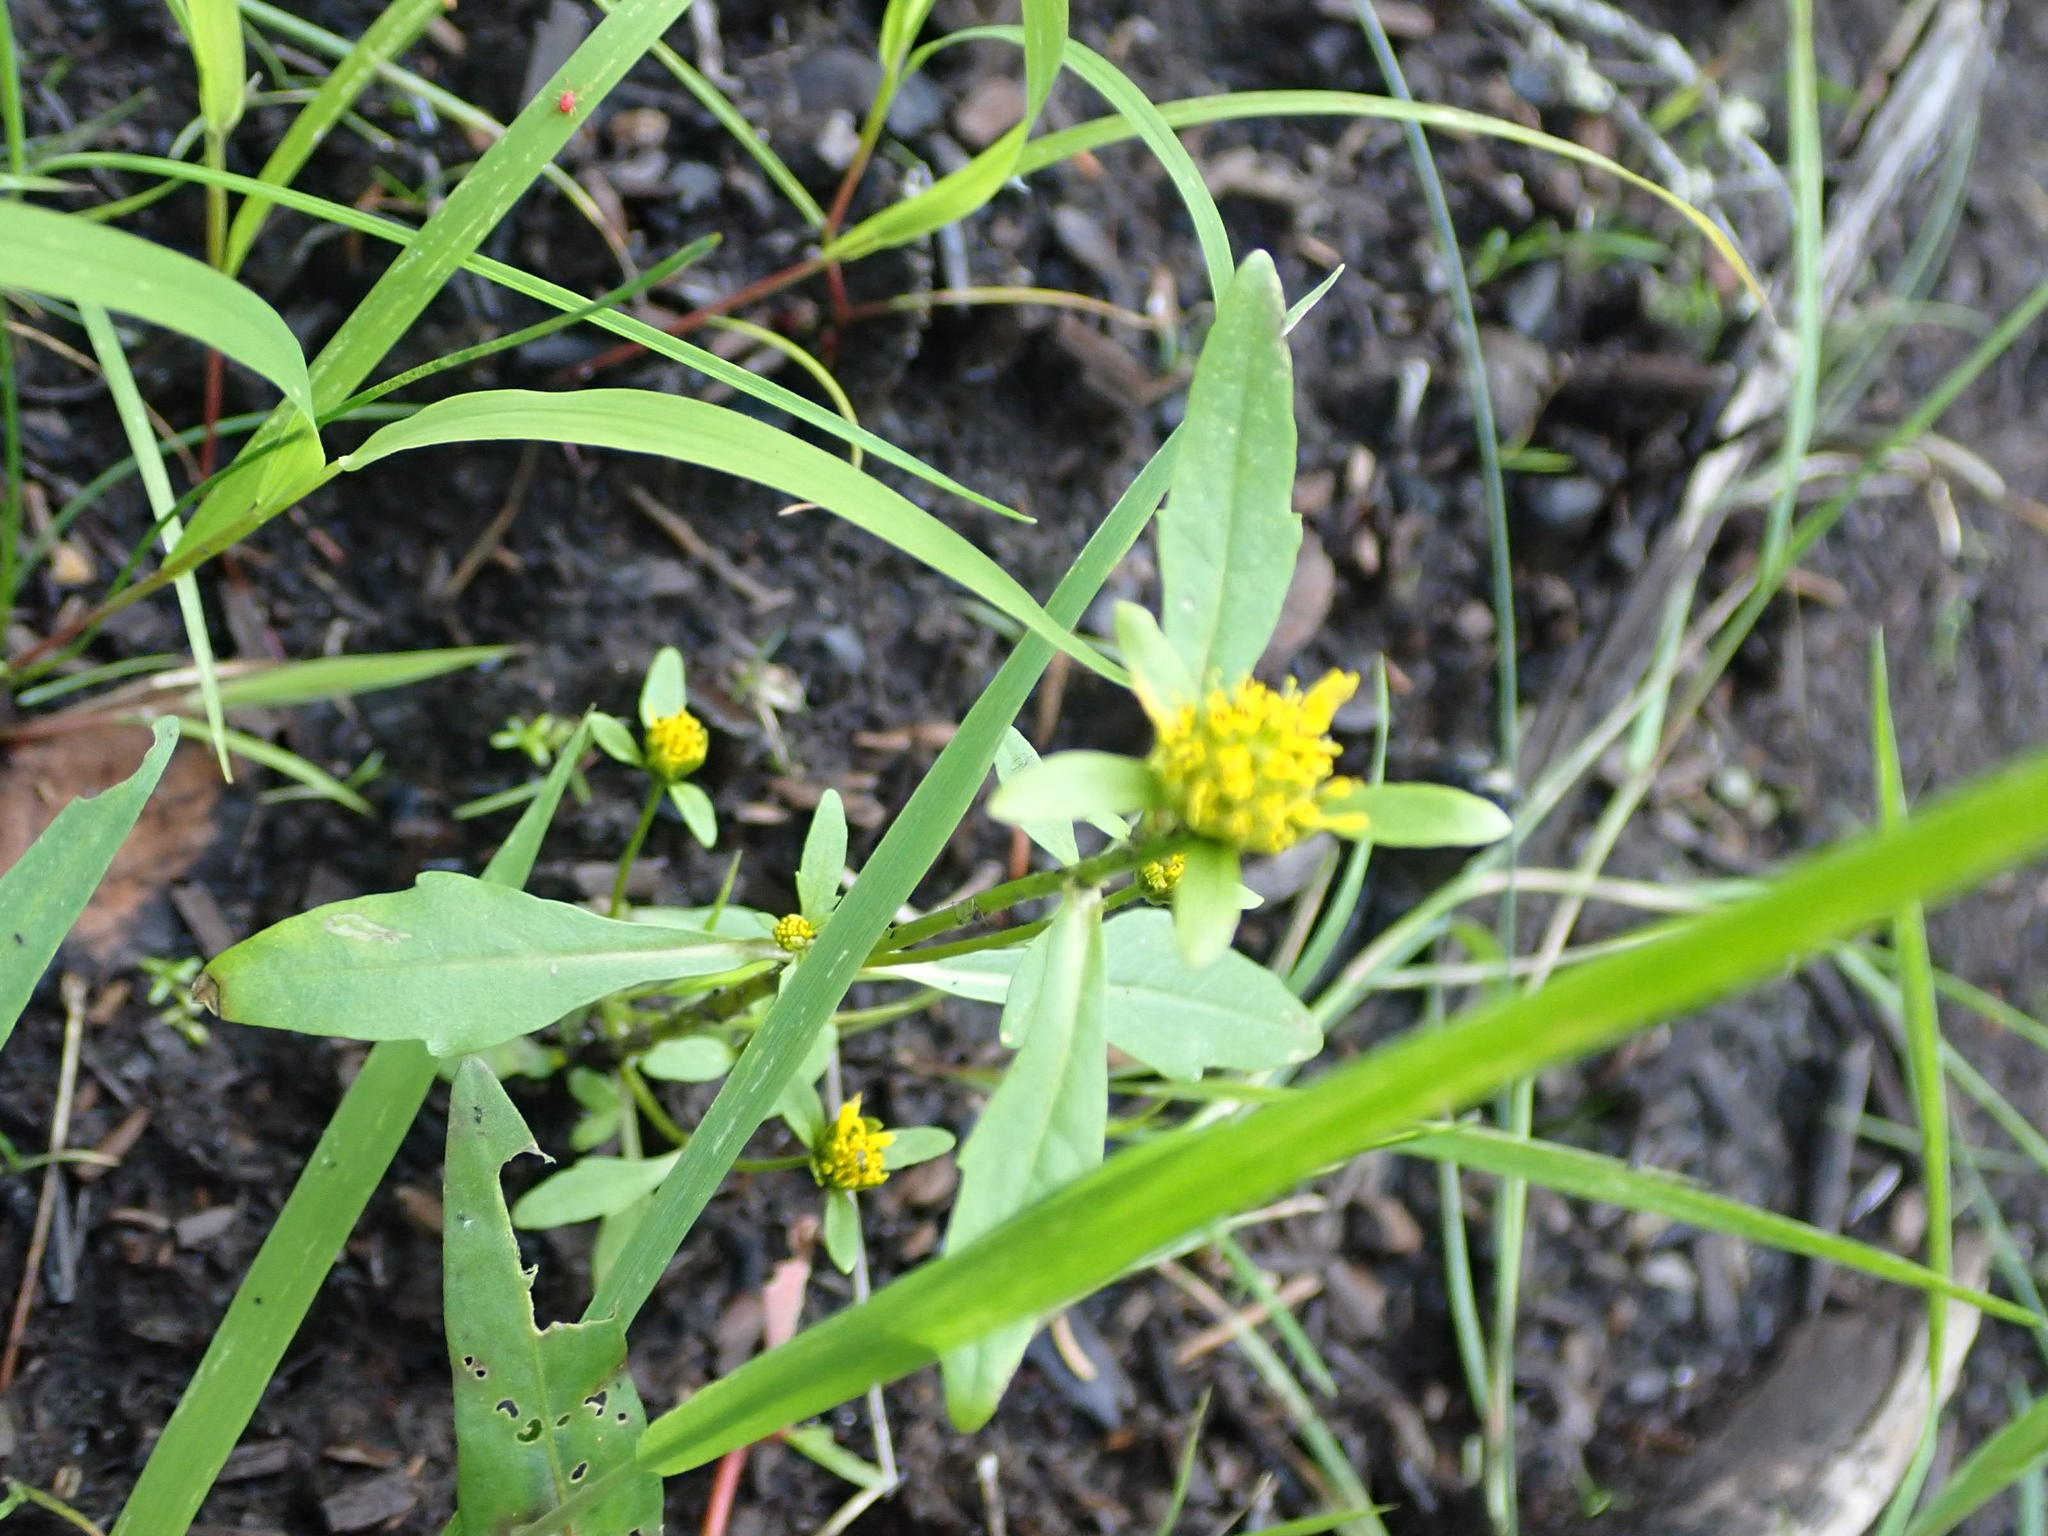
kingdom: Plantae
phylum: Tracheophyta
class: Magnoliopsida
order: Asterales
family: Asteraceae
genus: Bidens
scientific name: Bidens frondosa
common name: Beggarticks
